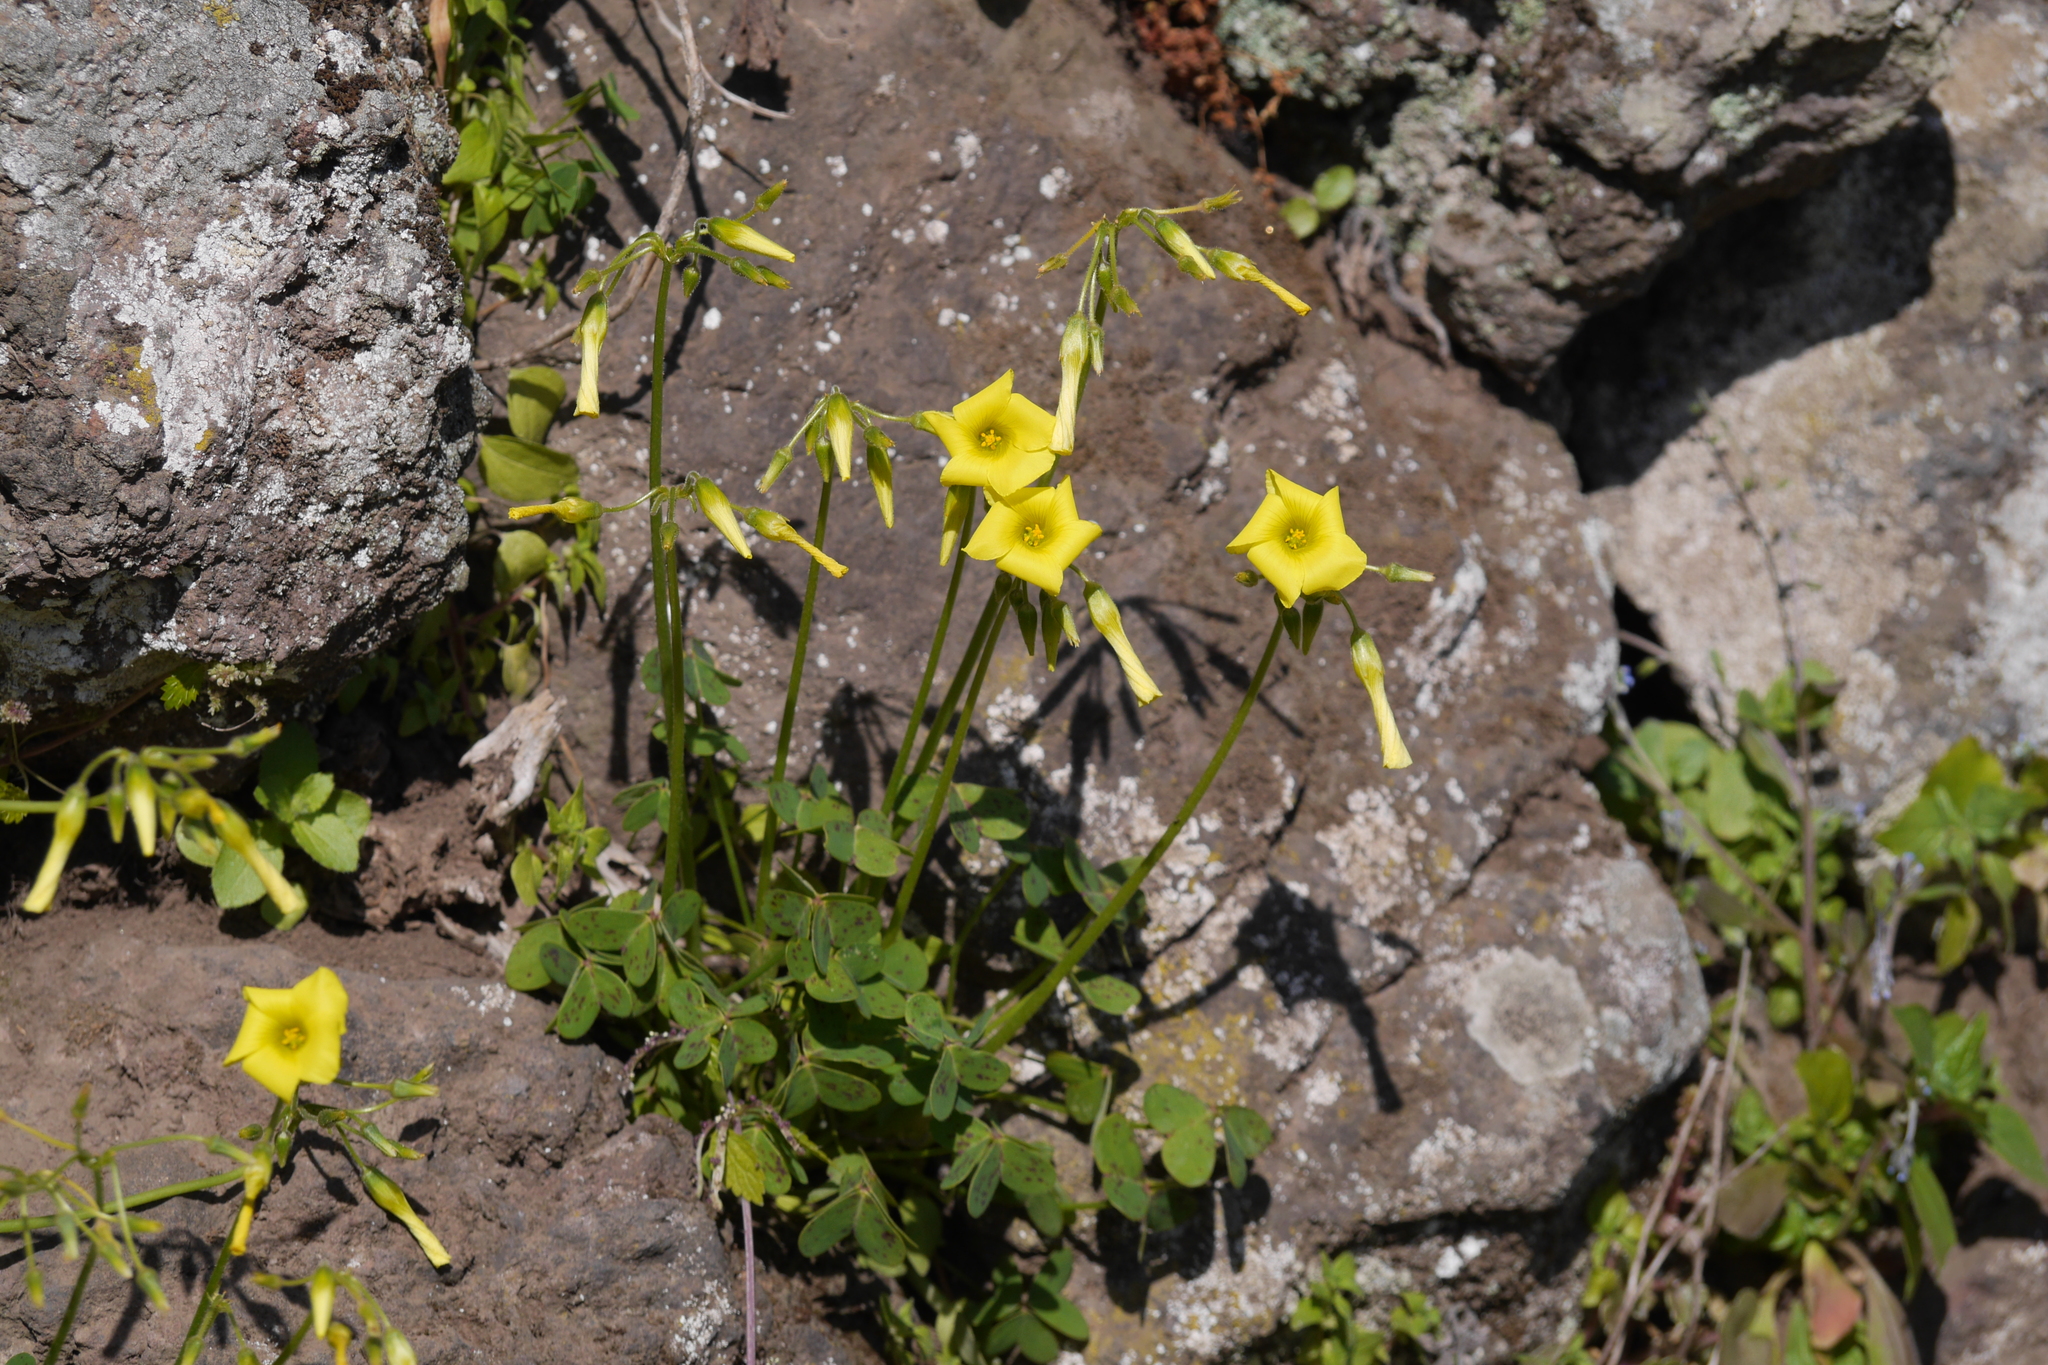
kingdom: Plantae
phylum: Tracheophyta
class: Magnoliopsida
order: Oxalidales
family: Oxalidaceae
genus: Oxalis
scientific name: Oxalis pes-caprae
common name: Bermuda-buttercup
